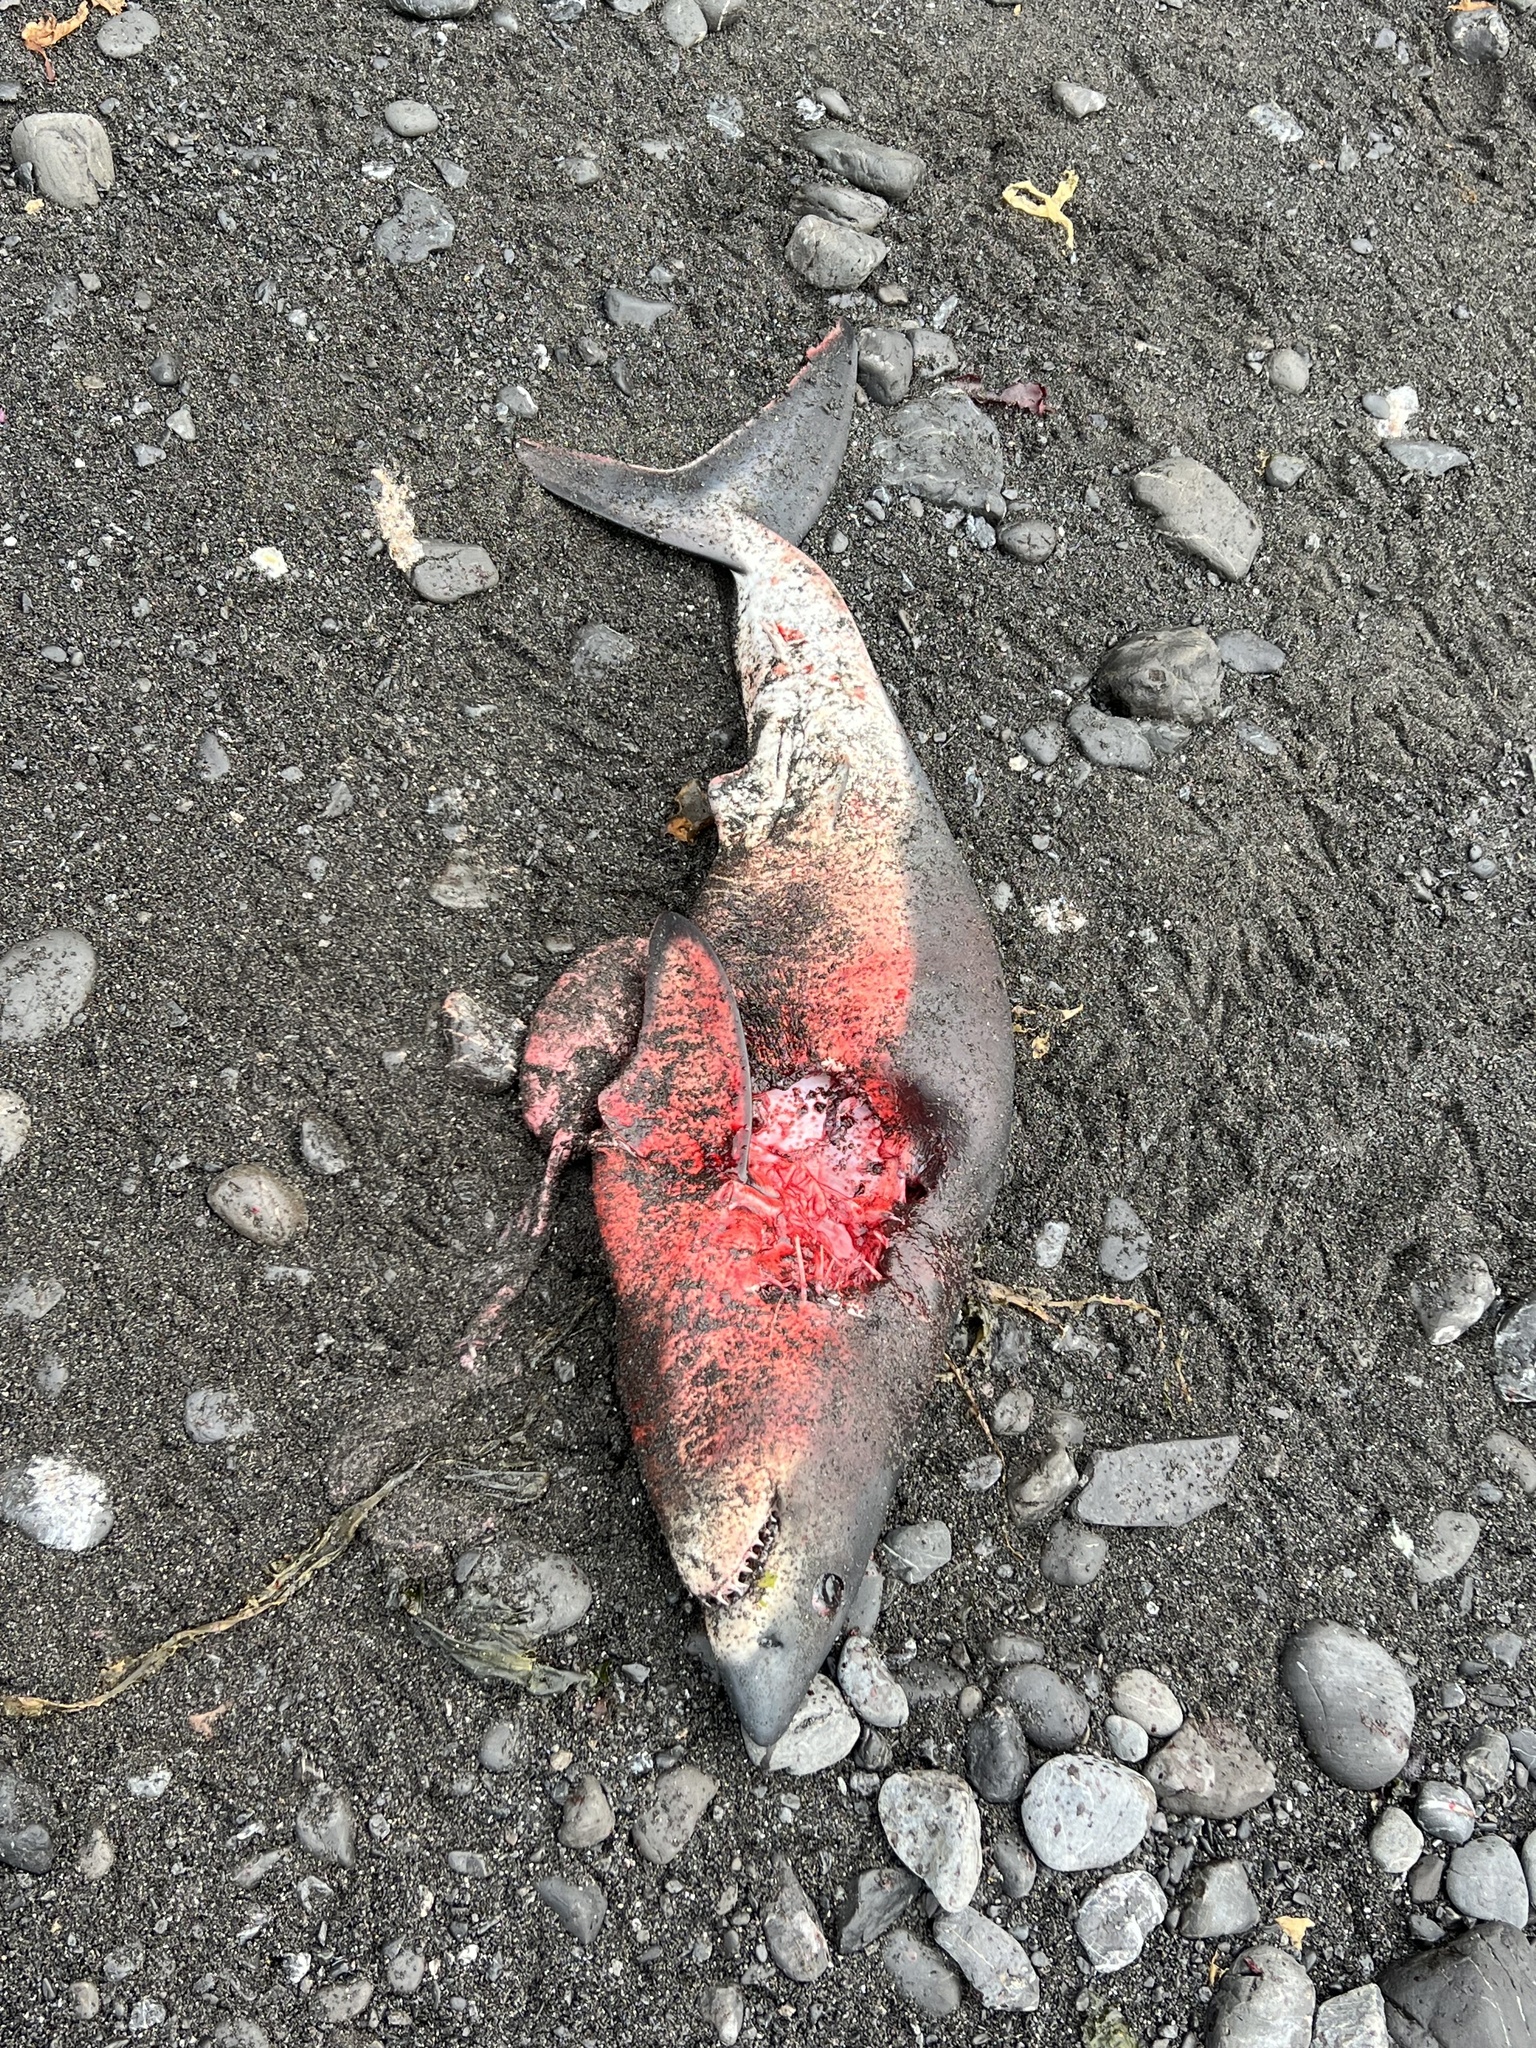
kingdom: Animalia
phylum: Chordata
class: Elasmobranchii
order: Lamniformes
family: Lamnidae
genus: Lamna
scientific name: Lamna ditropis
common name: Salmon shark
